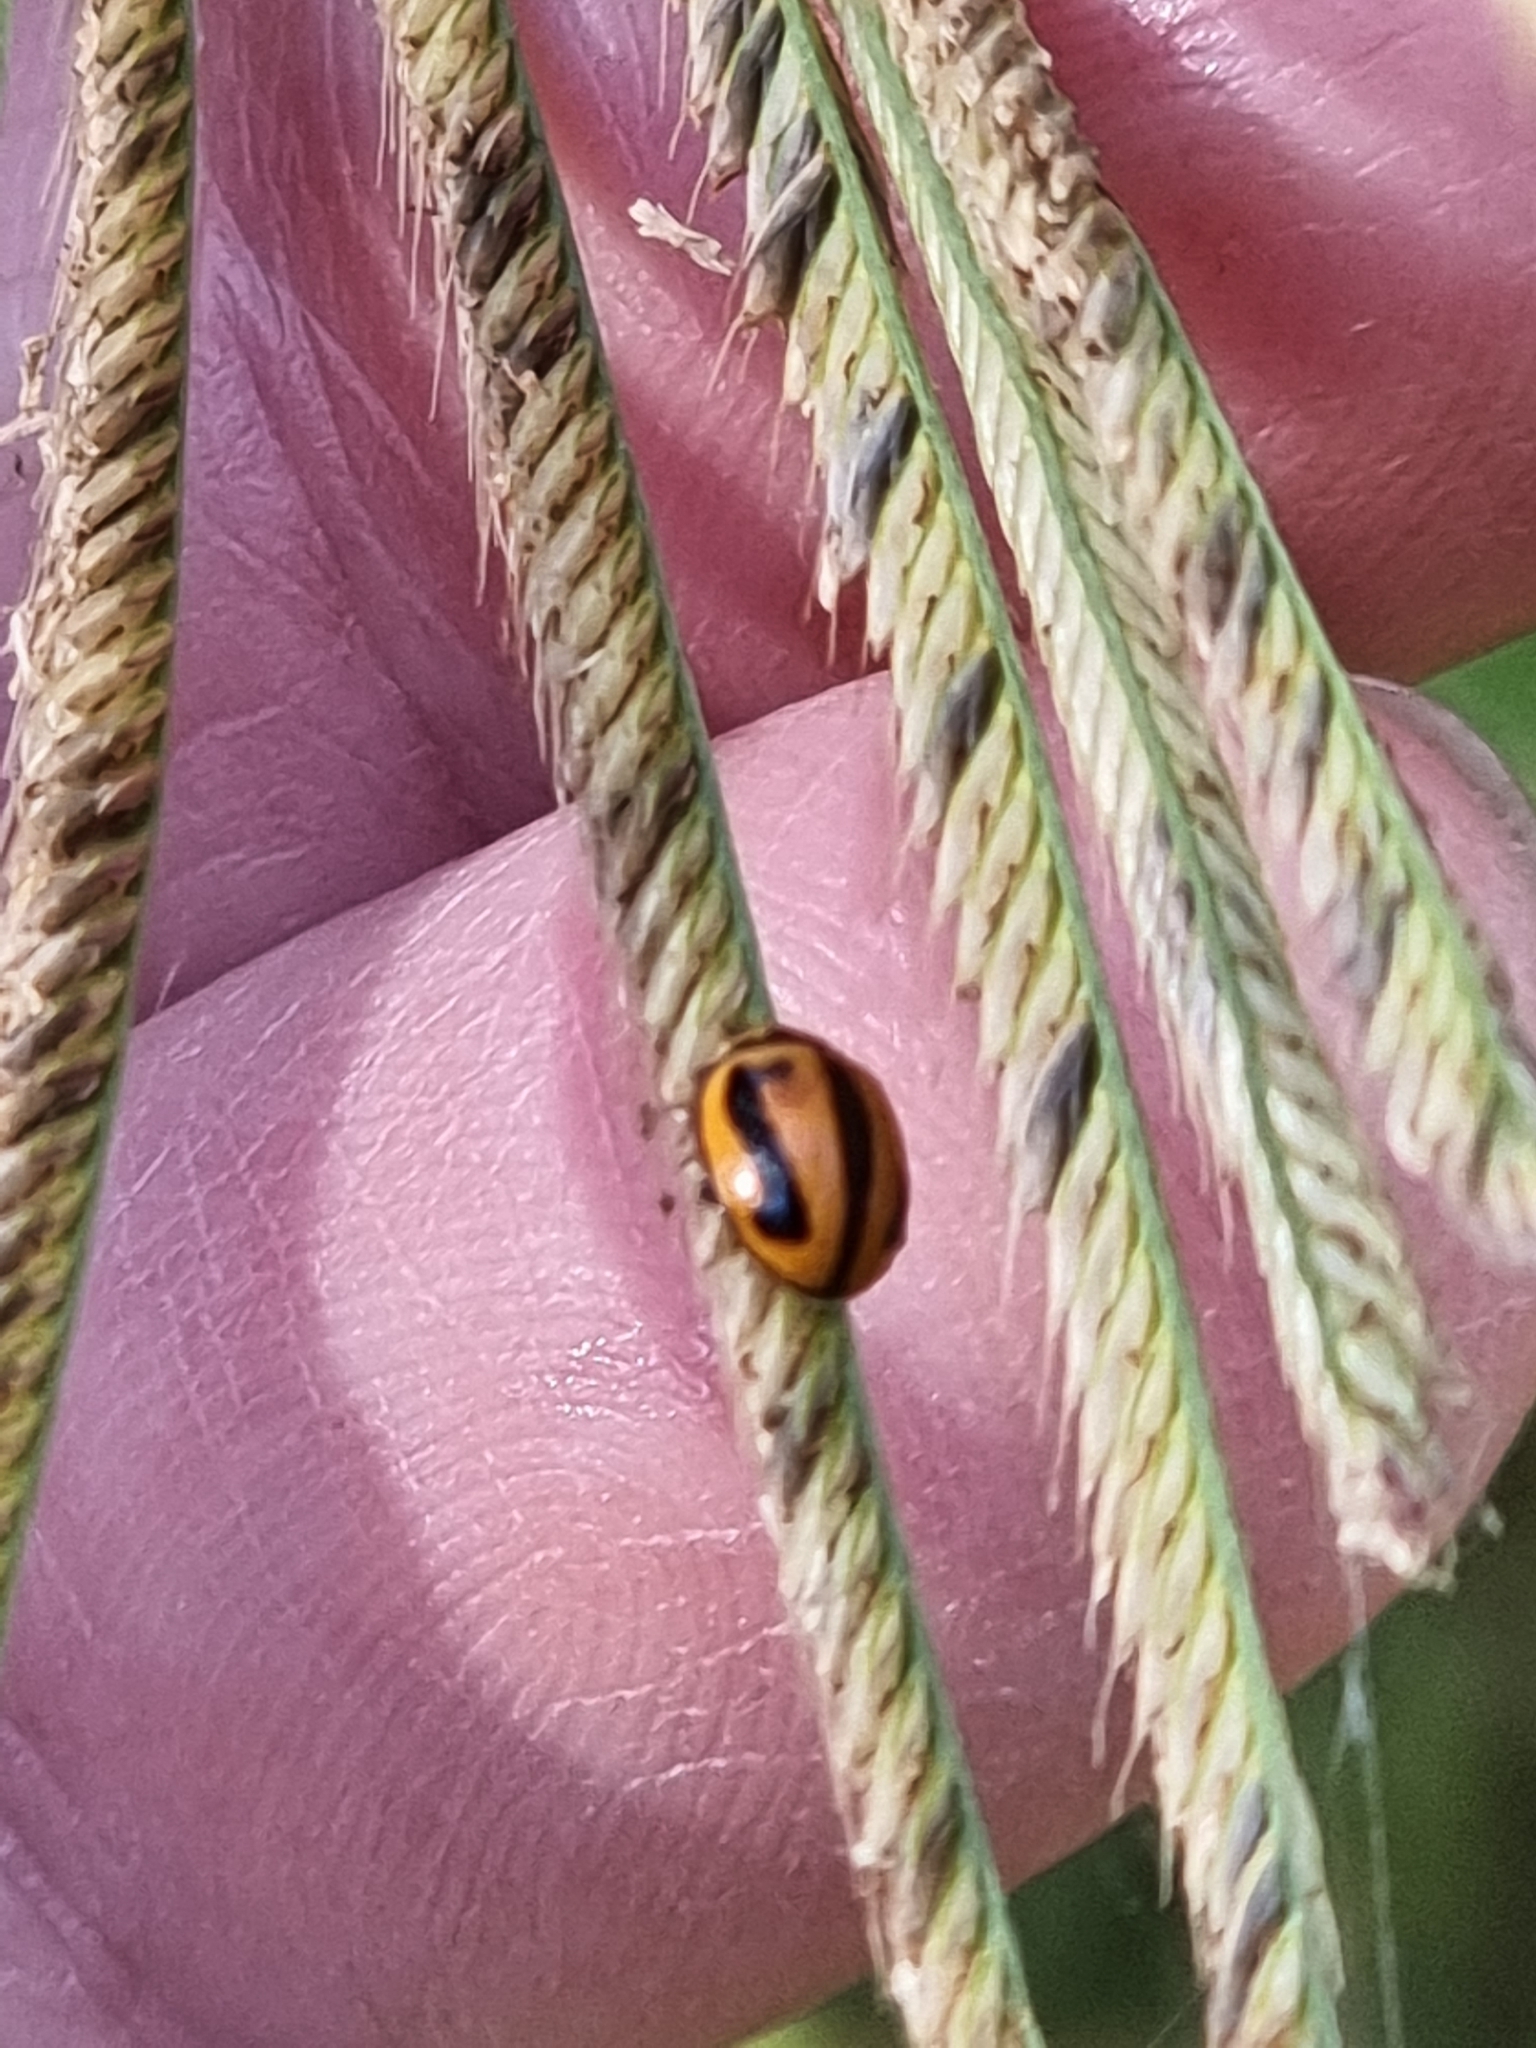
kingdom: Animalia
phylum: Arthropoda
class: Insecta
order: Coleoptera
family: Coccinellidae
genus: Micraspis
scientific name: Micraspis frenata
